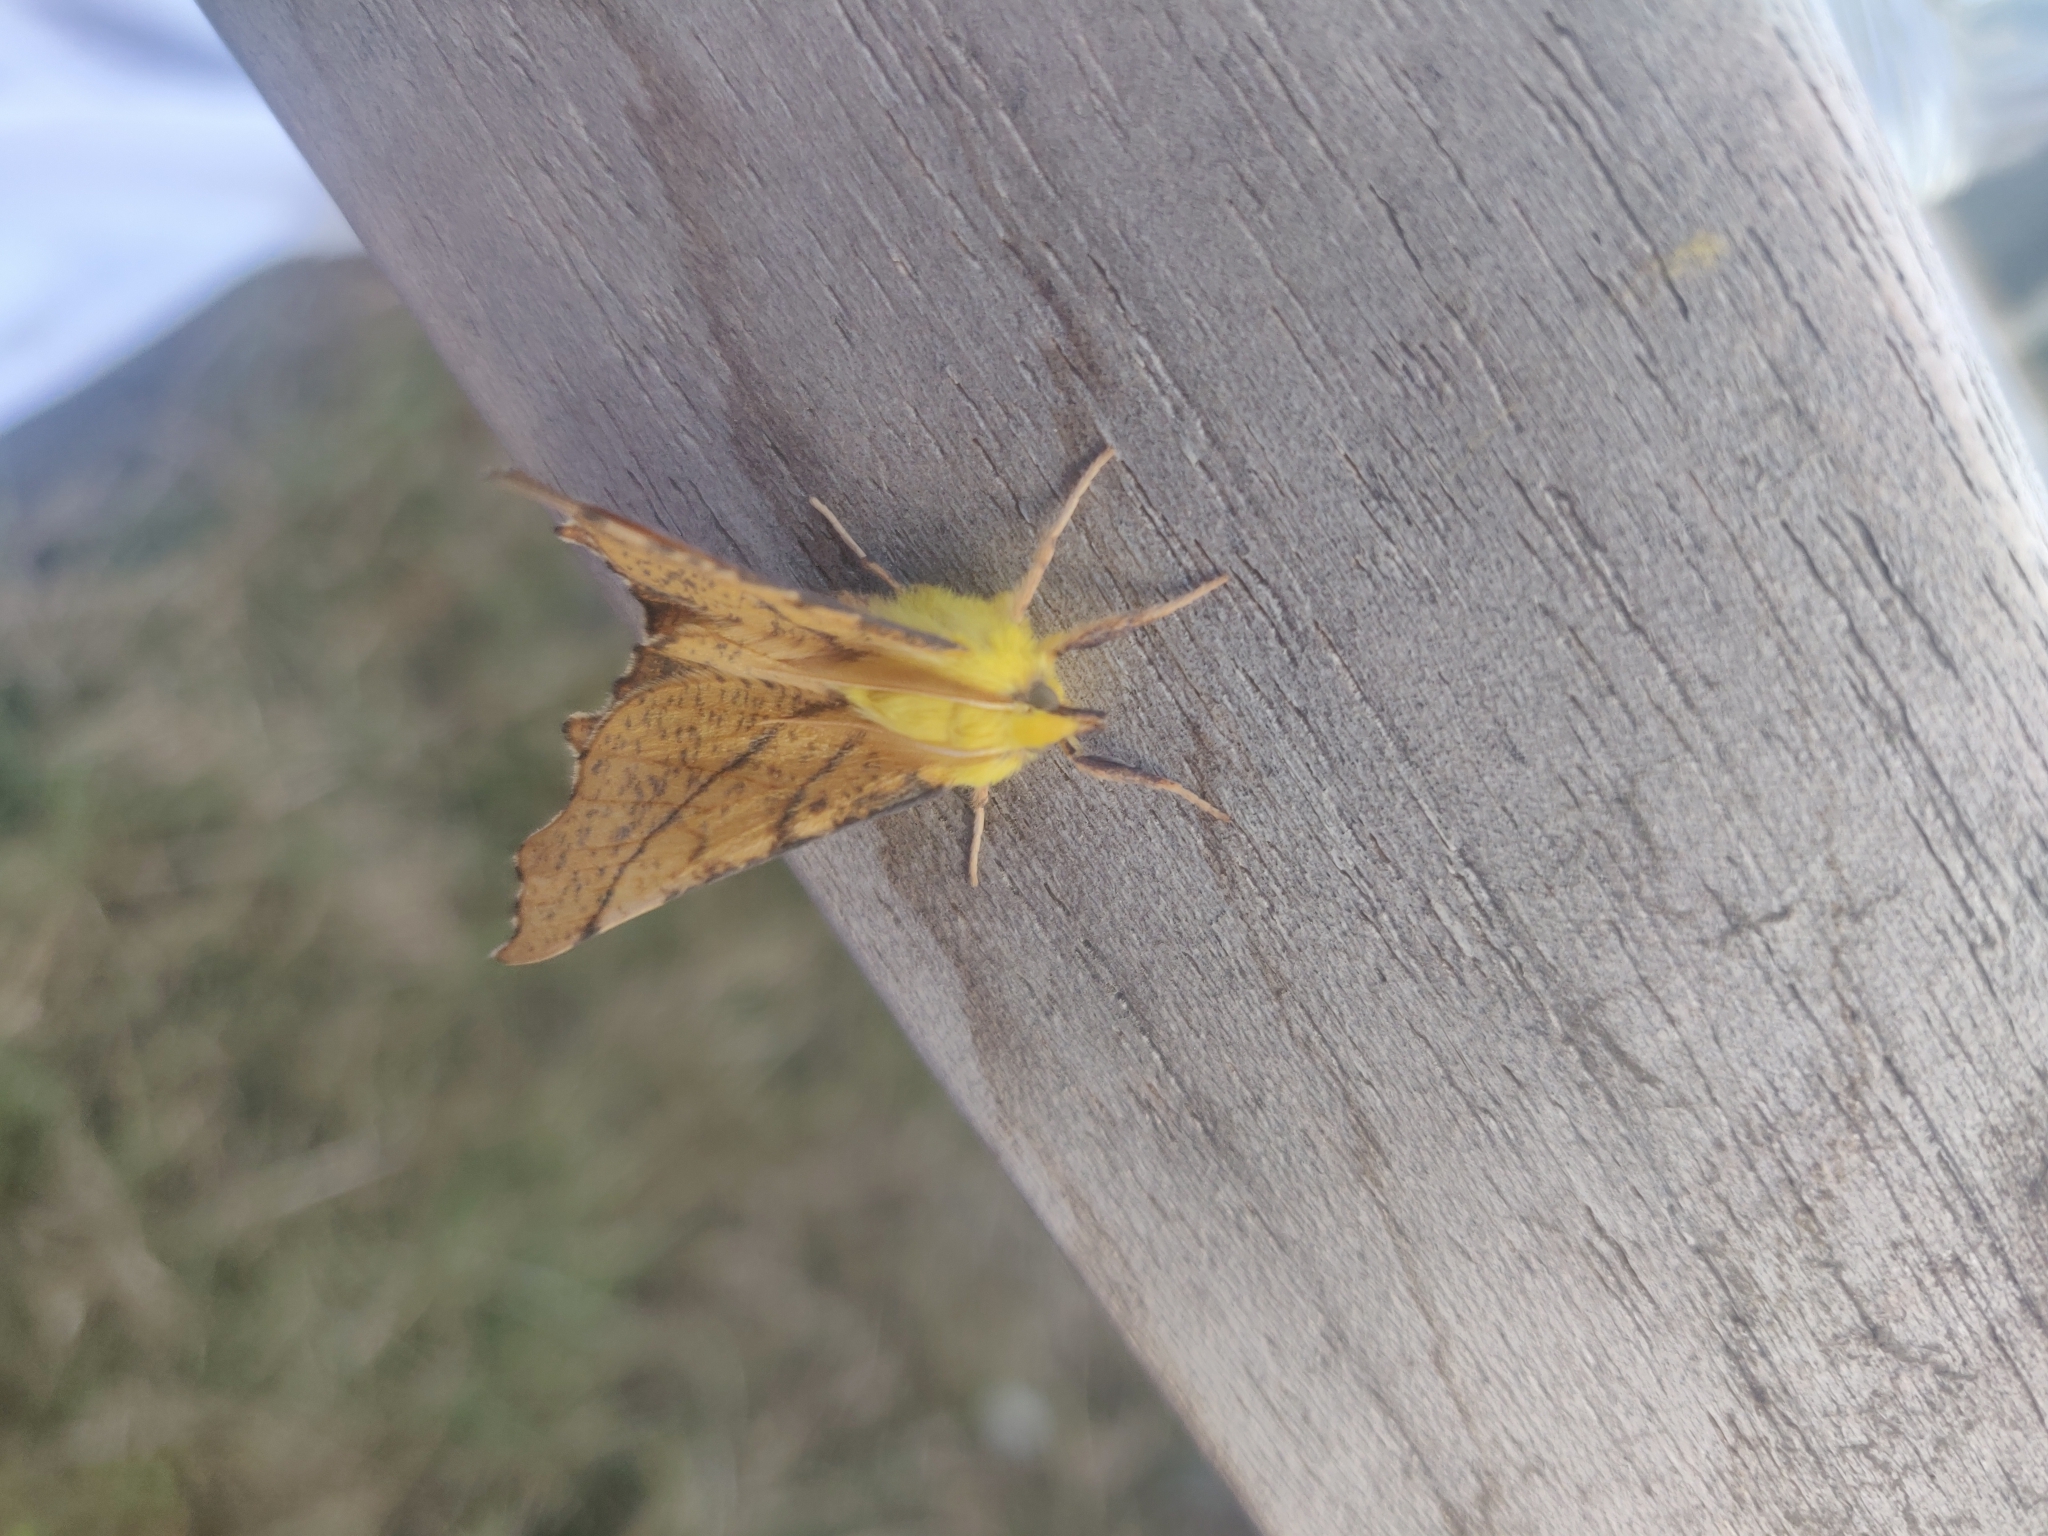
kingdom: Animalia
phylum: Arthropoda
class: Insecta
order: Lepidoptera
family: Geometridae
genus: Ennomos
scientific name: Ennomos alniaria
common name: Canary-shouldered thorn
